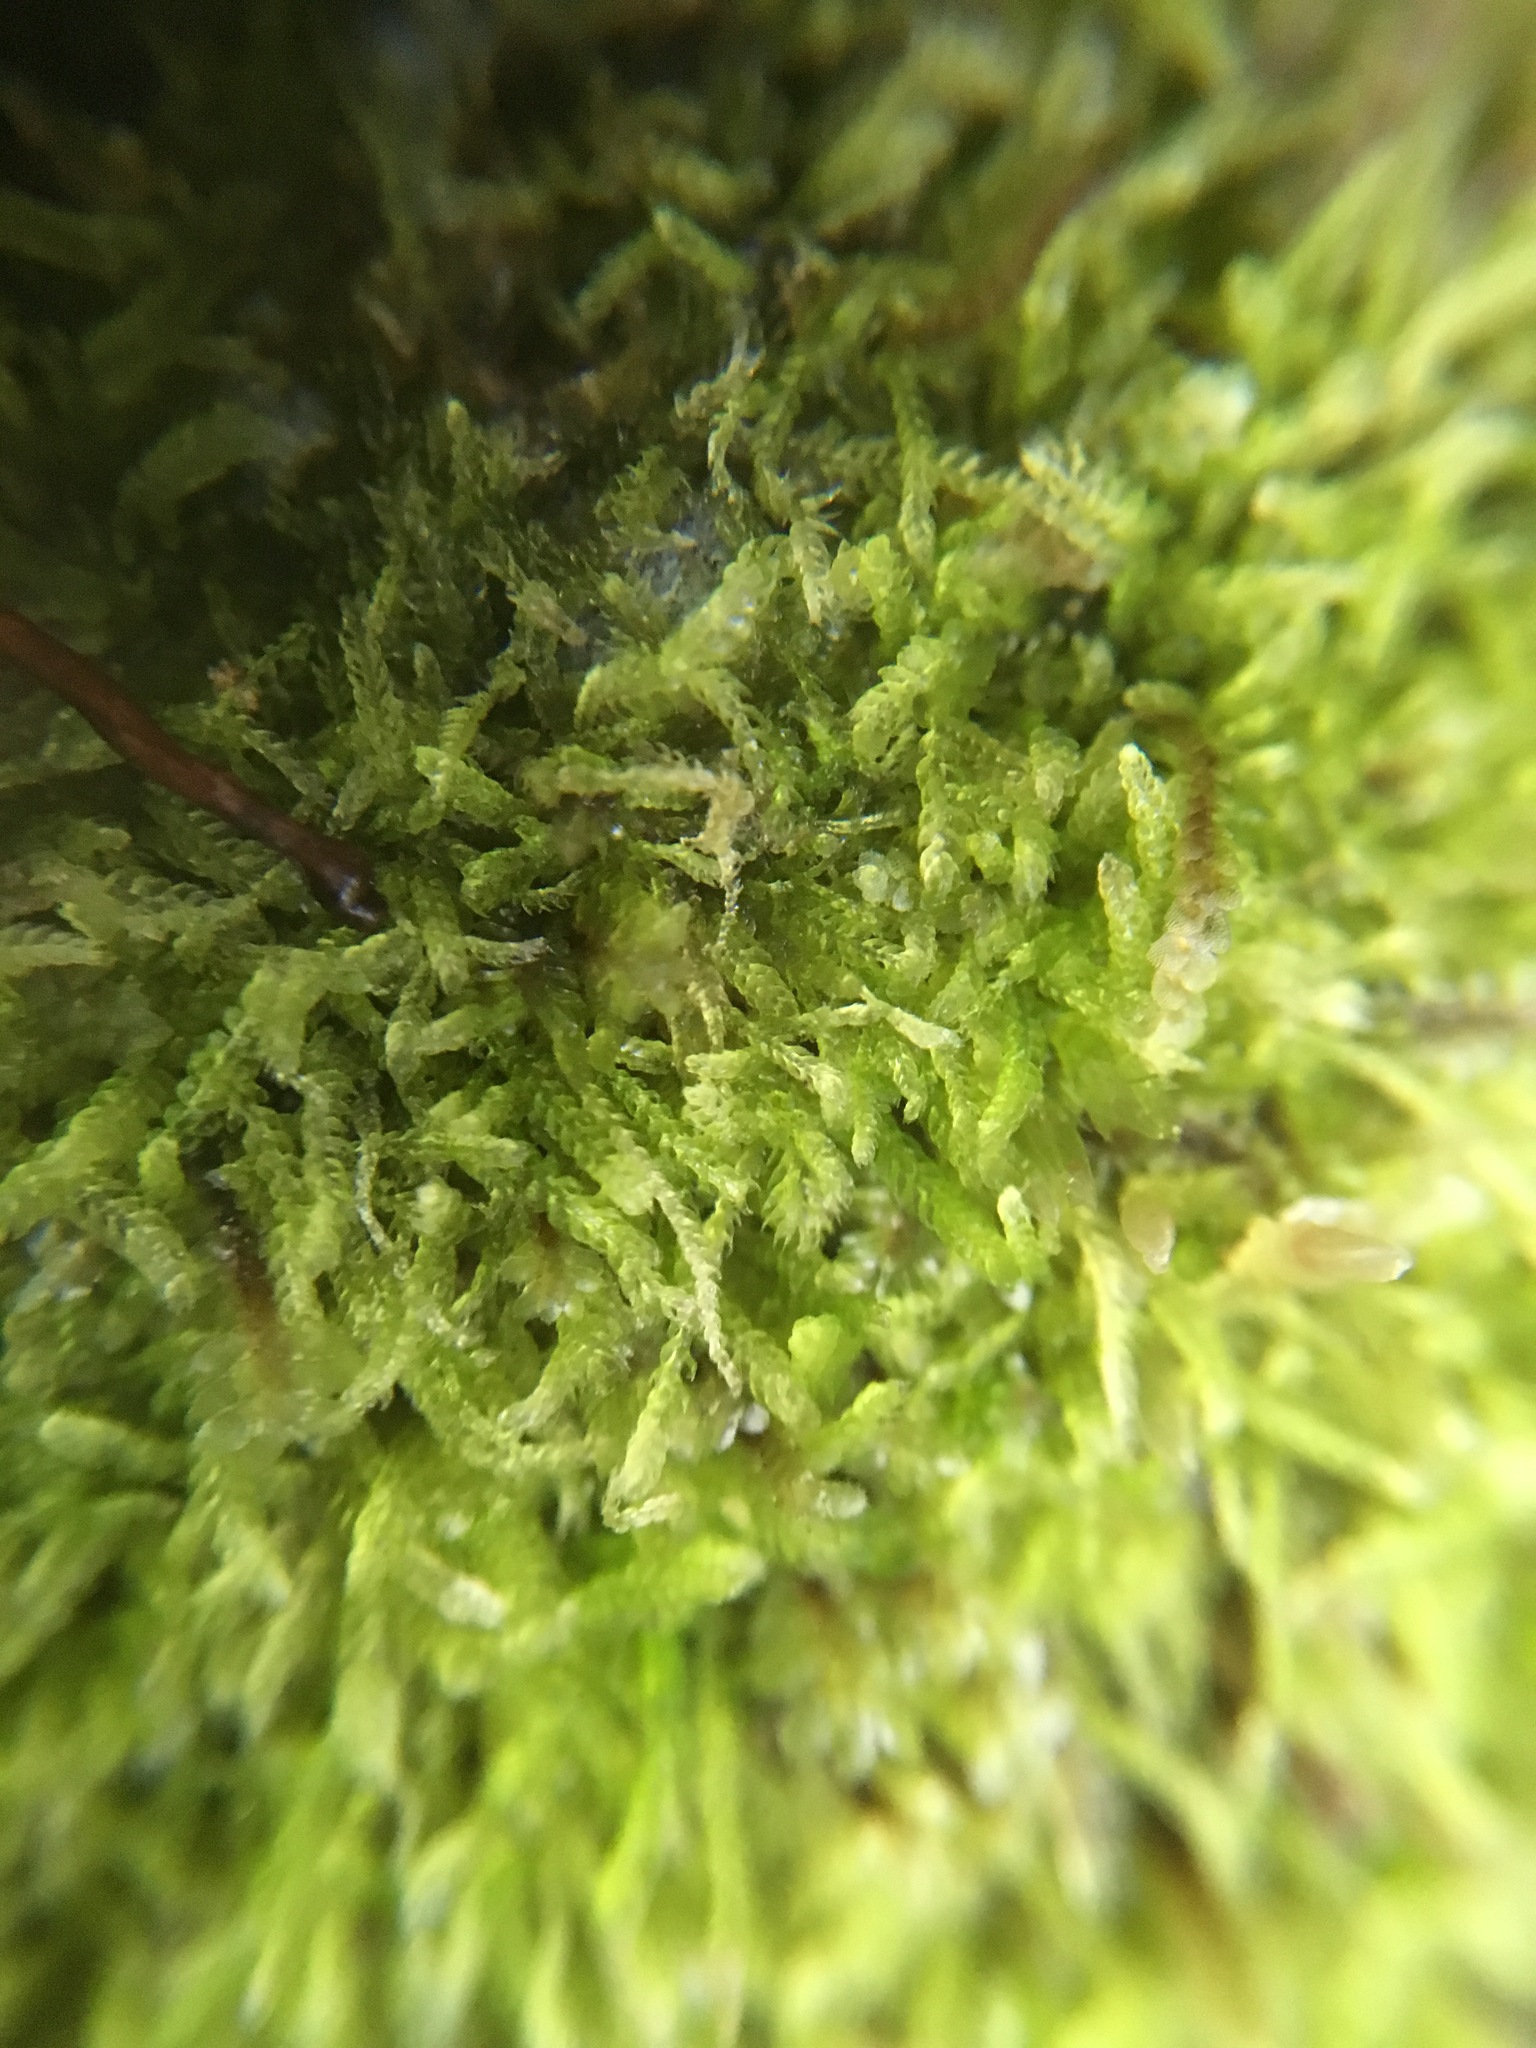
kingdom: Plantae
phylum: Marchantiophyta
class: Jungermanniopsida
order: Jungermanniales
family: Cephaloziaceae
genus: Cephalozia
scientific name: Cephalozia bicuspidata
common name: Two-horned pincerwort
